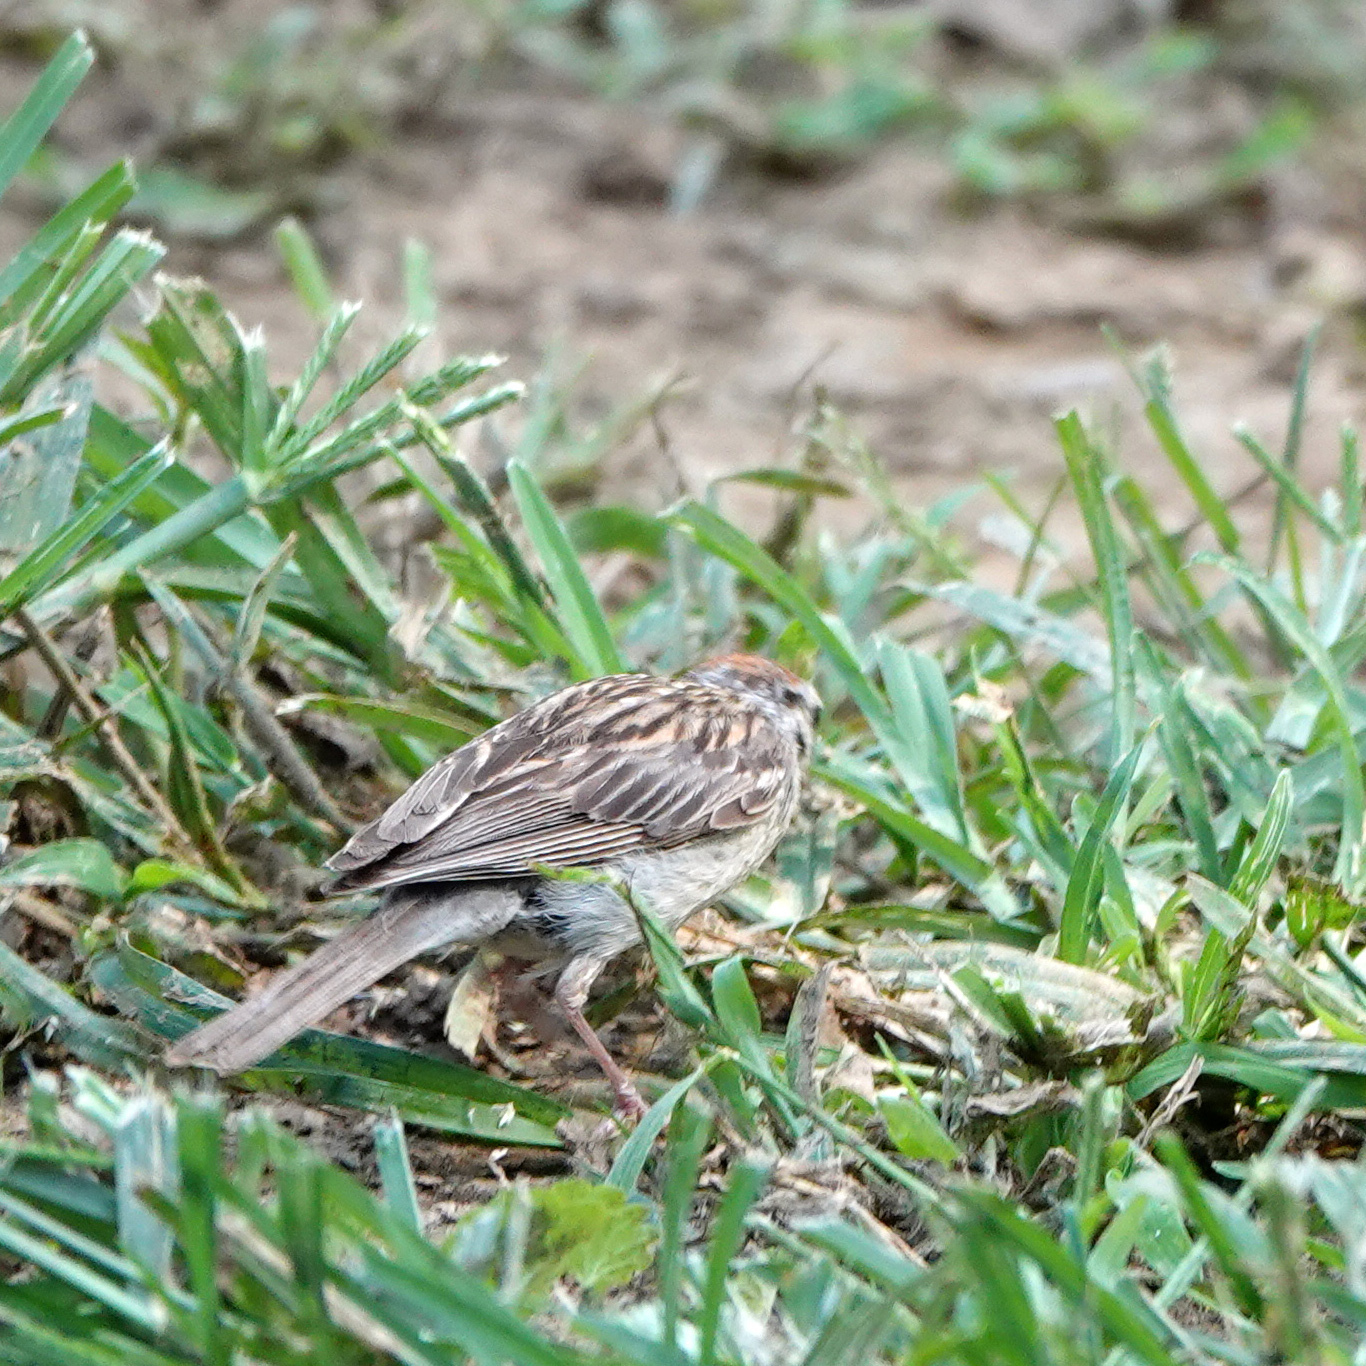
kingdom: Animalia
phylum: Chordata
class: Aves
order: Passeriformes
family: Passerellidae
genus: Spizella
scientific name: Spizella passerina
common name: Chipping sparrow
